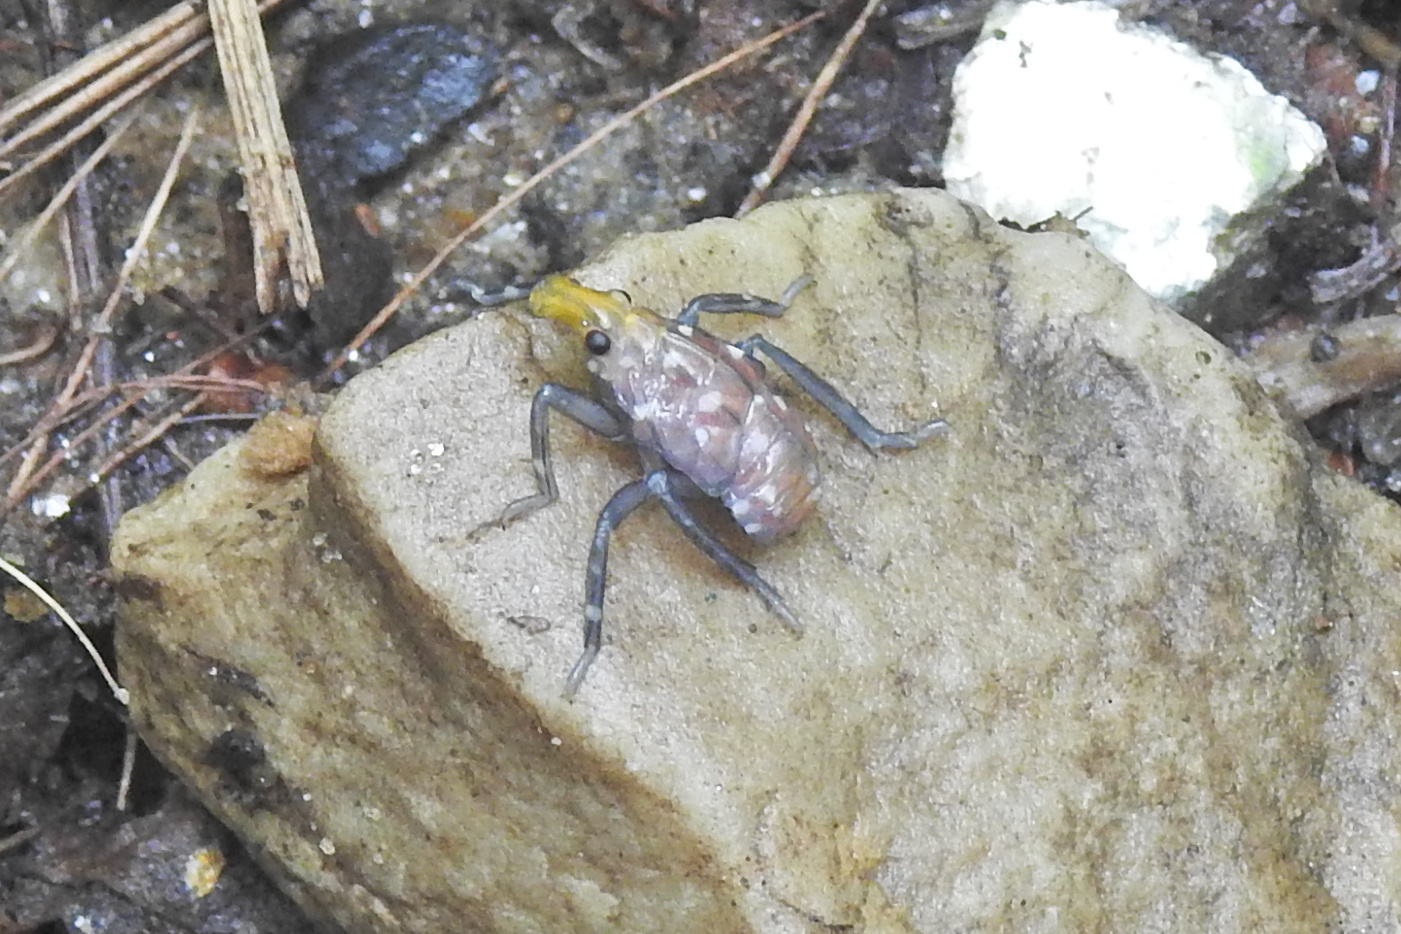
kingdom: Animalia
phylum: Arthropoda
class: Insecta
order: Hemiptera
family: Fulgoridae
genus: Lycorma
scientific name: Lycorma delicatula
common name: Spotted lanternfly
